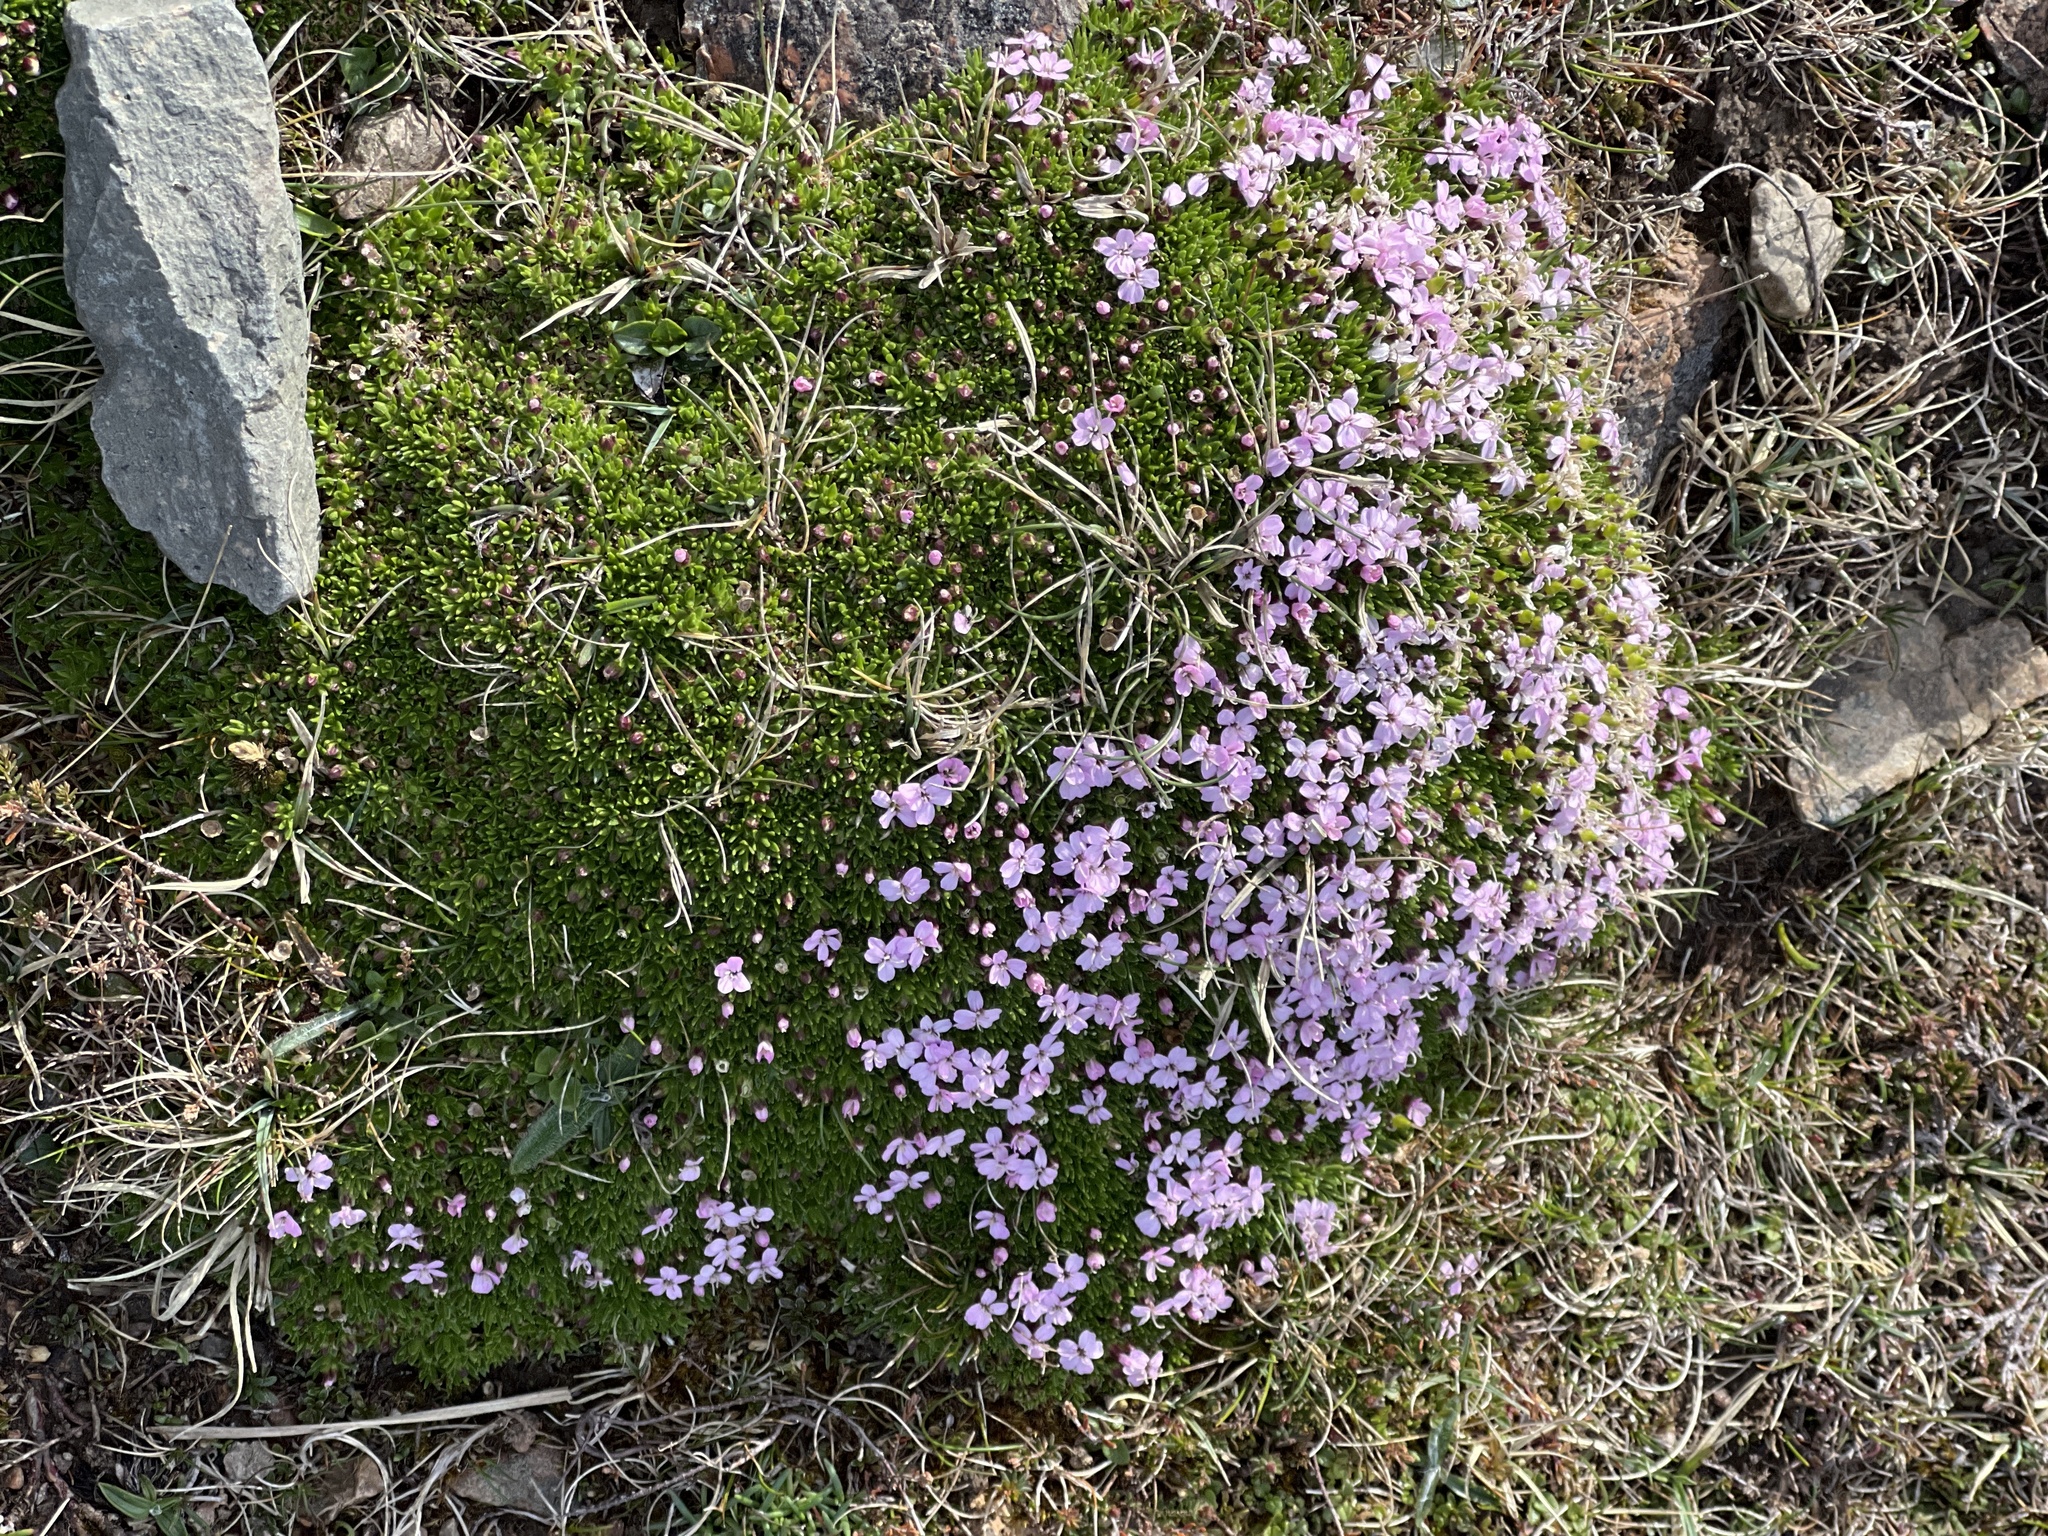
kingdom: Plantae
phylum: Tracheophyta
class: Magnoliopsida
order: Caryophyllales
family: Caryophyllaceae
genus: Silene
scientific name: Silene acaulis
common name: Moss campion
